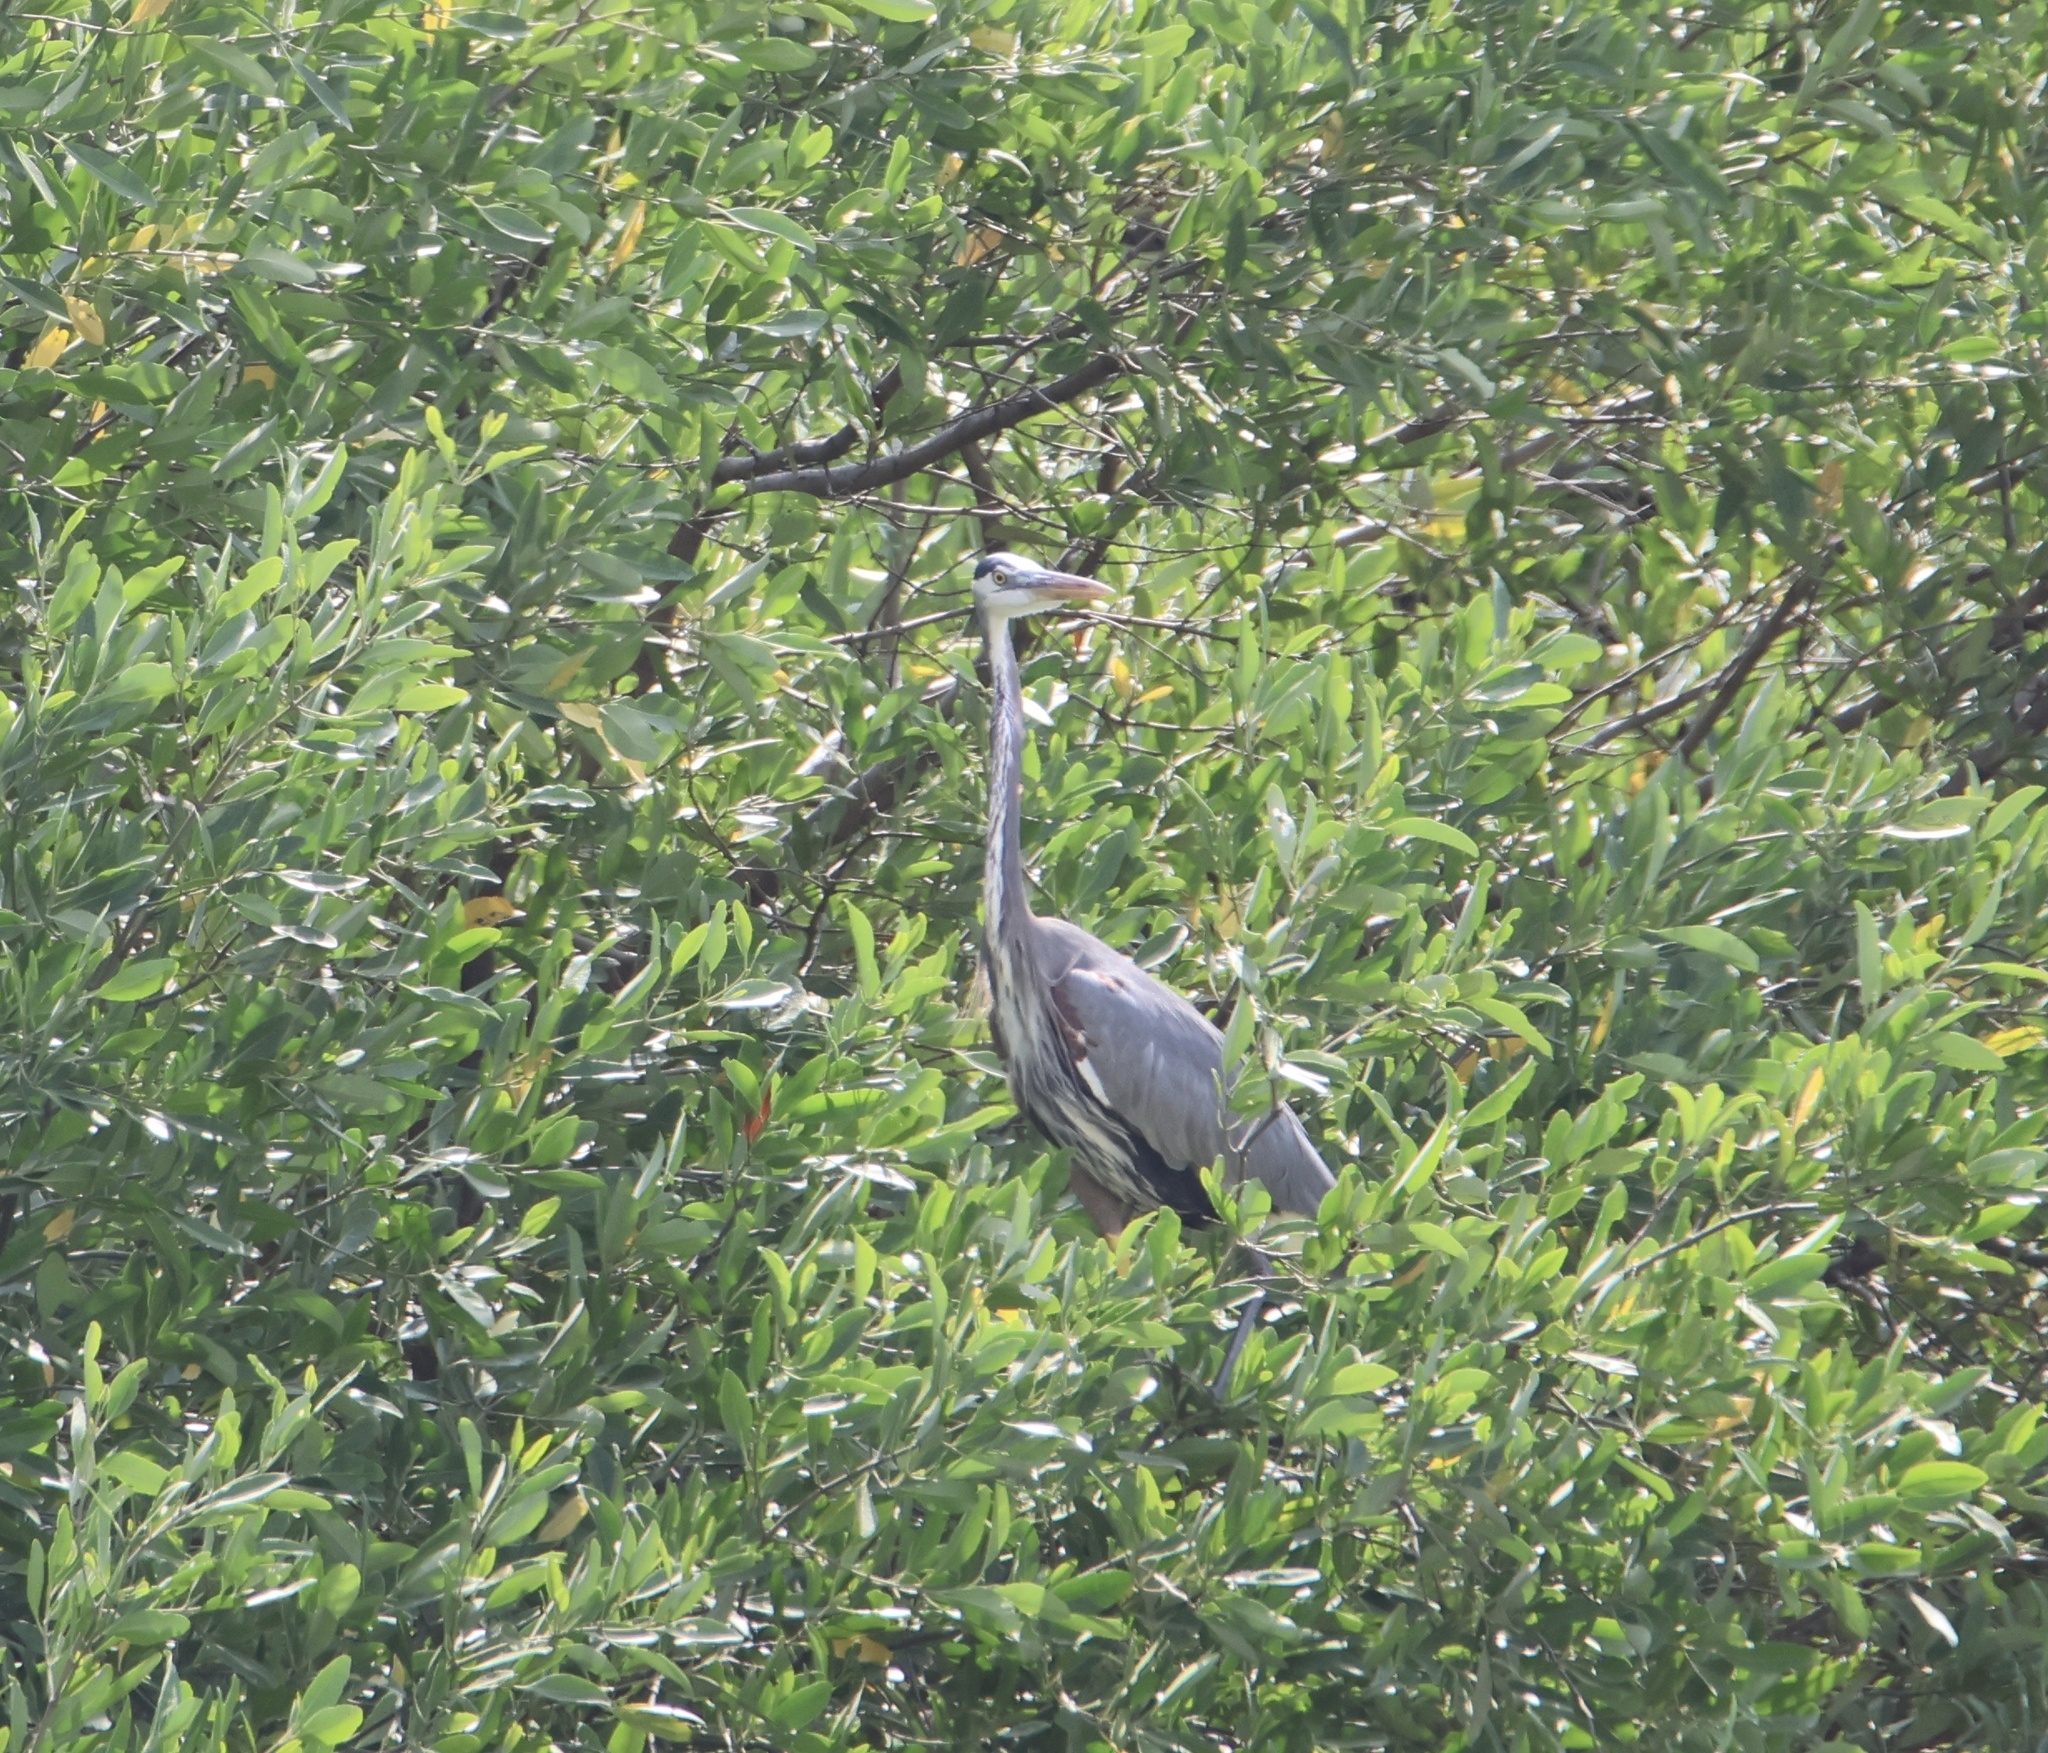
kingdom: Animalia
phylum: Chordata
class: Aves
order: Pelecaniformes
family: Ardeidae
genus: Ardea
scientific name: Ardea herodias
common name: Great blue heron
